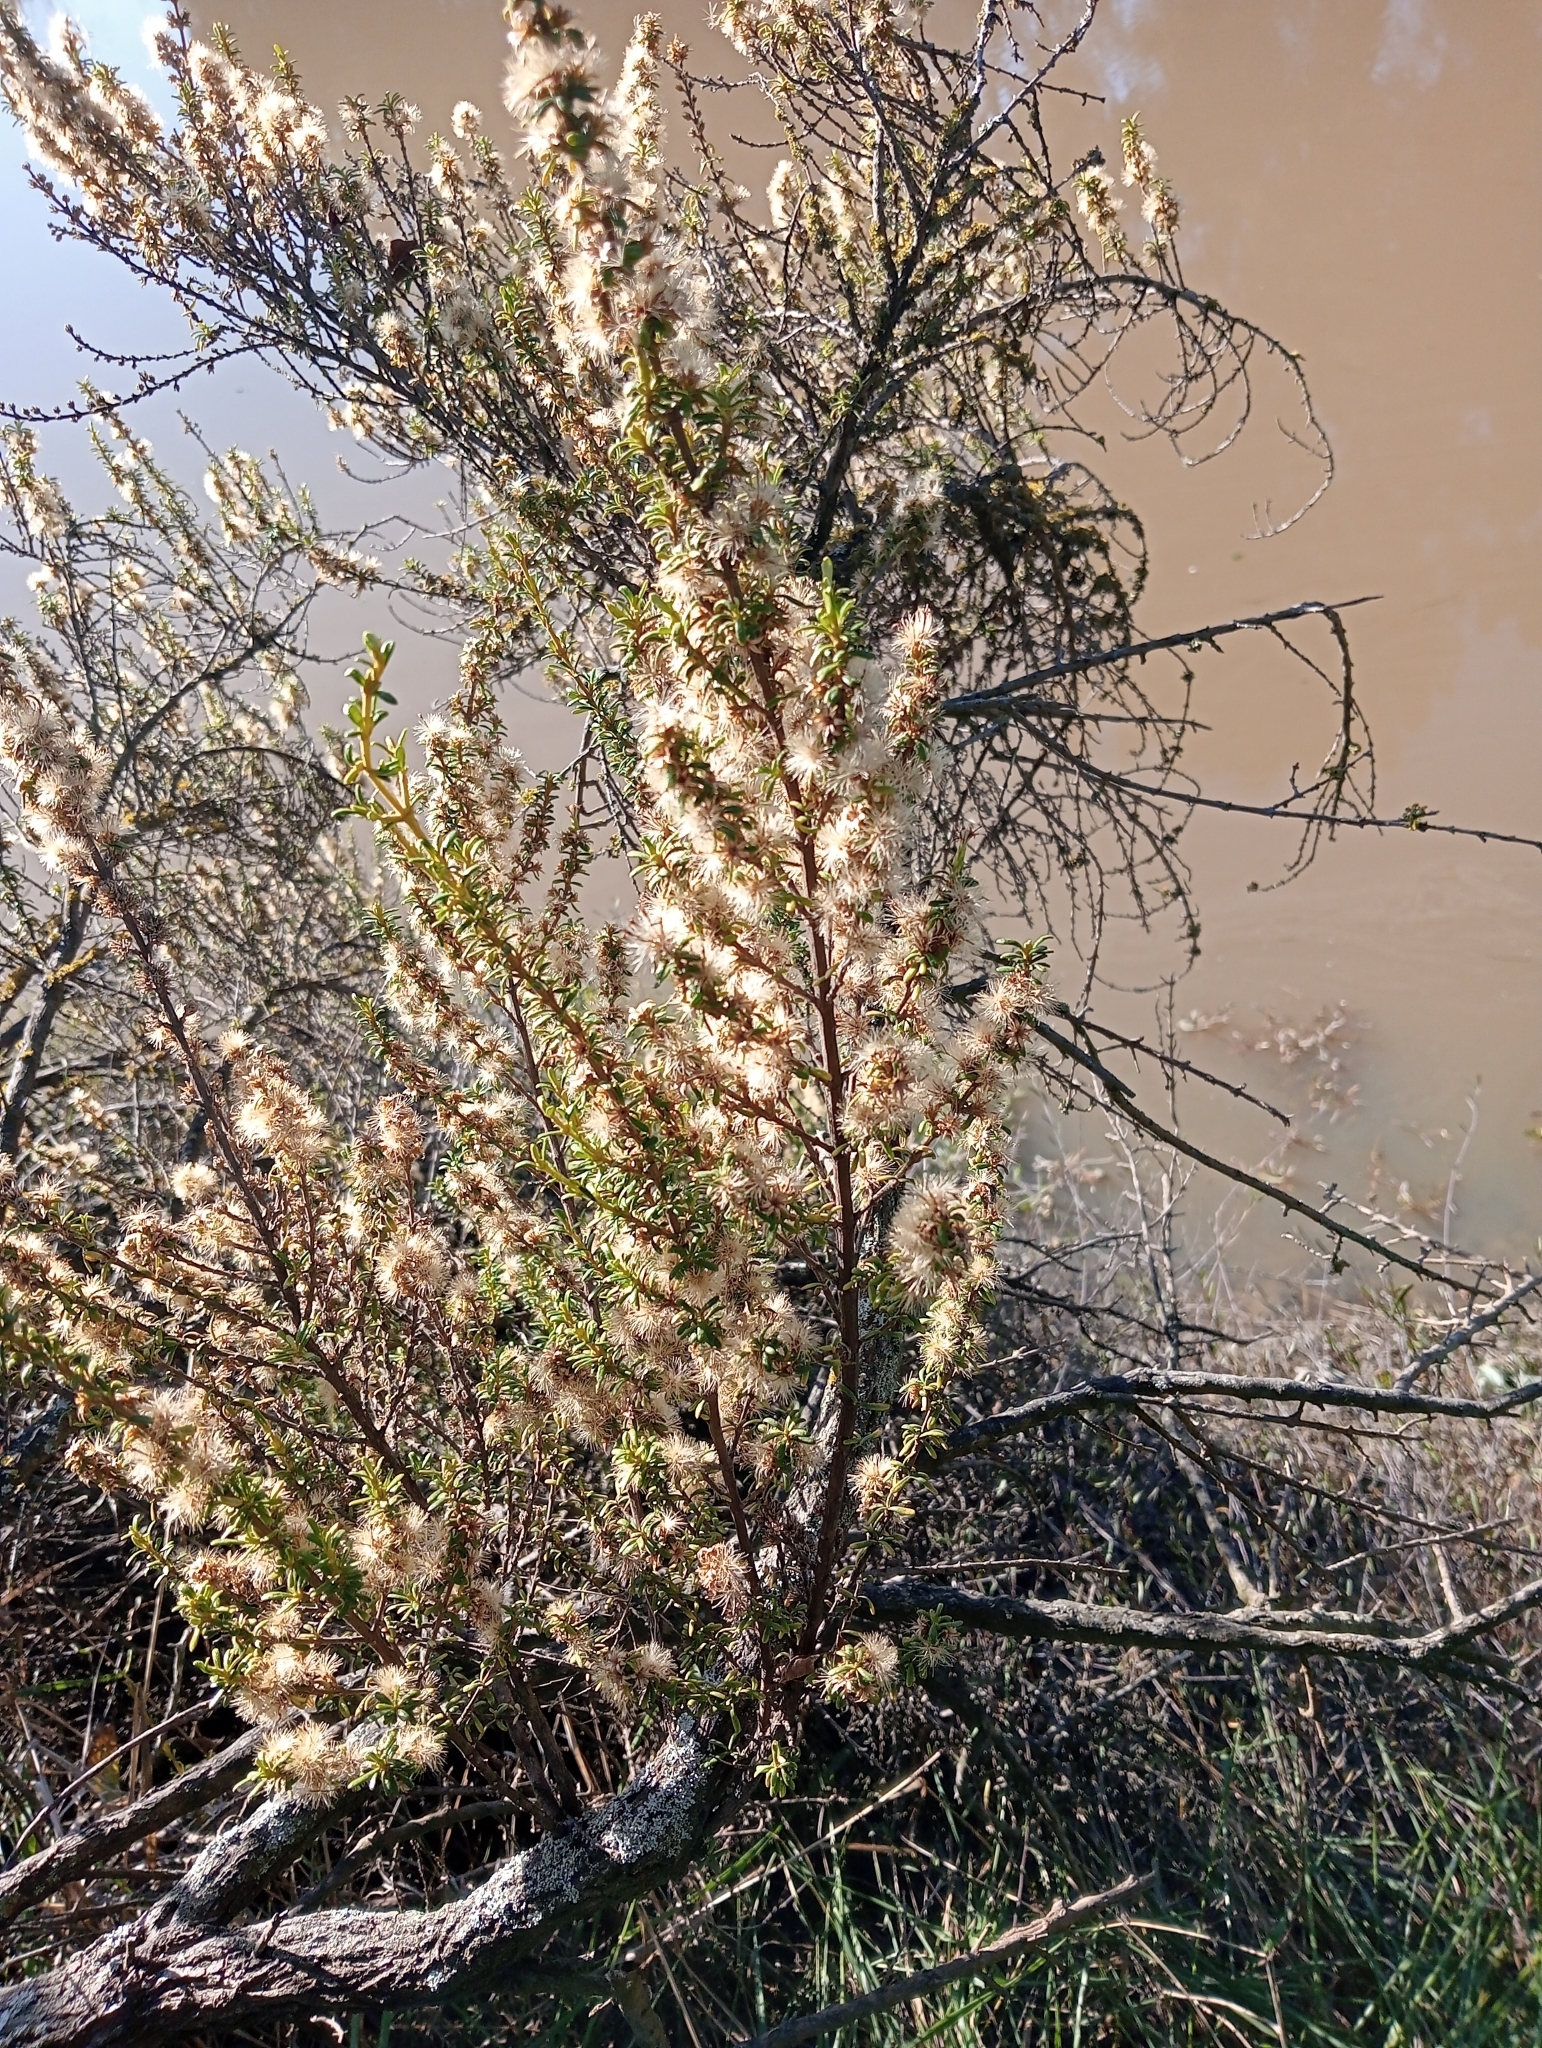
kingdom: Plantae
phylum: Tracheophyta
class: Magnoliopsida
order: Asterales
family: Asteraceae
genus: Olearia
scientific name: Olearia solandri
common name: Coastal daisybush
